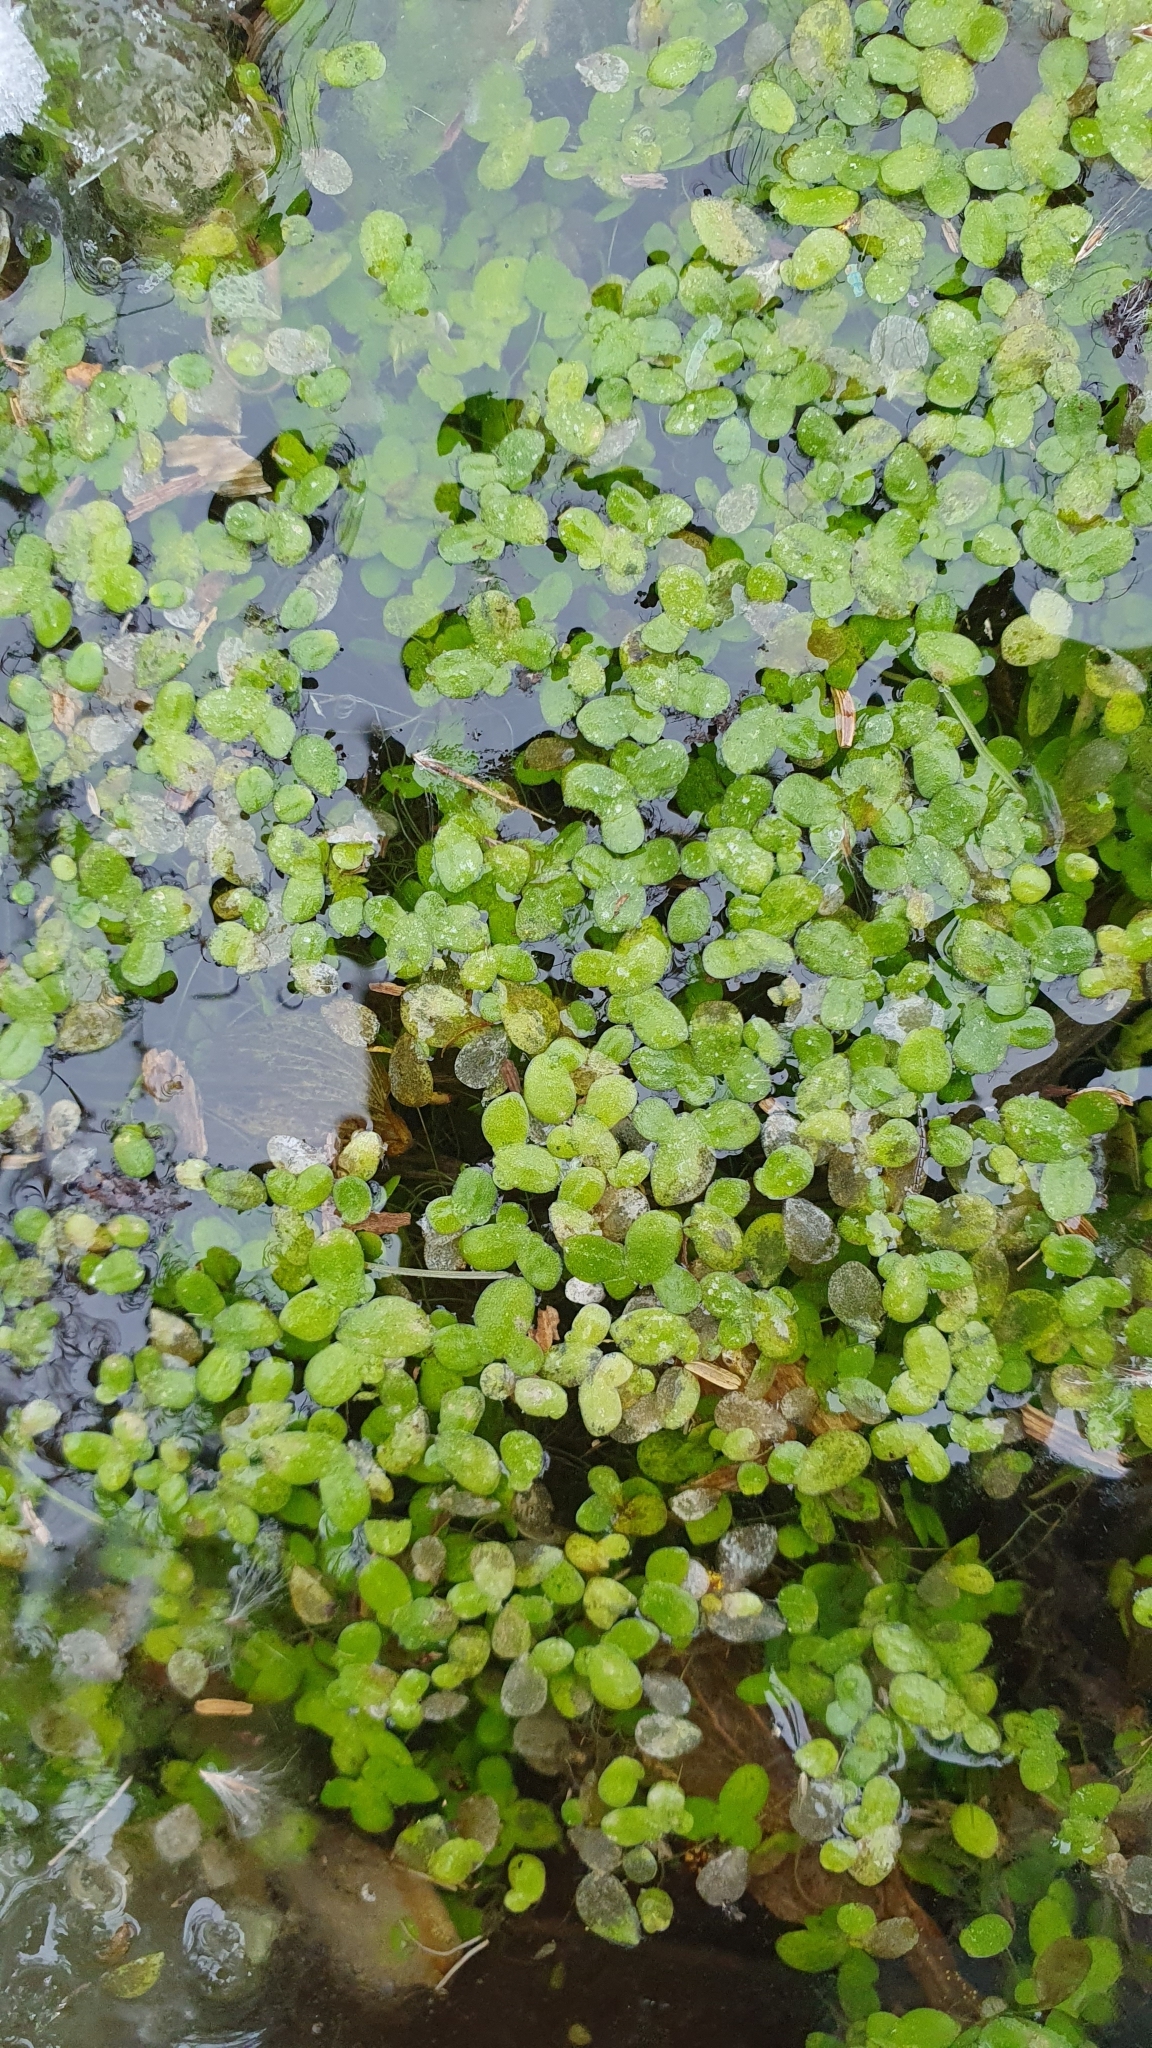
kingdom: Plantae
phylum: Tracheophyta
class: Liliopsida
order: Alismatales
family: Araceae
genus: Lemna
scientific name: Lemna minor
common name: Common duckweed
